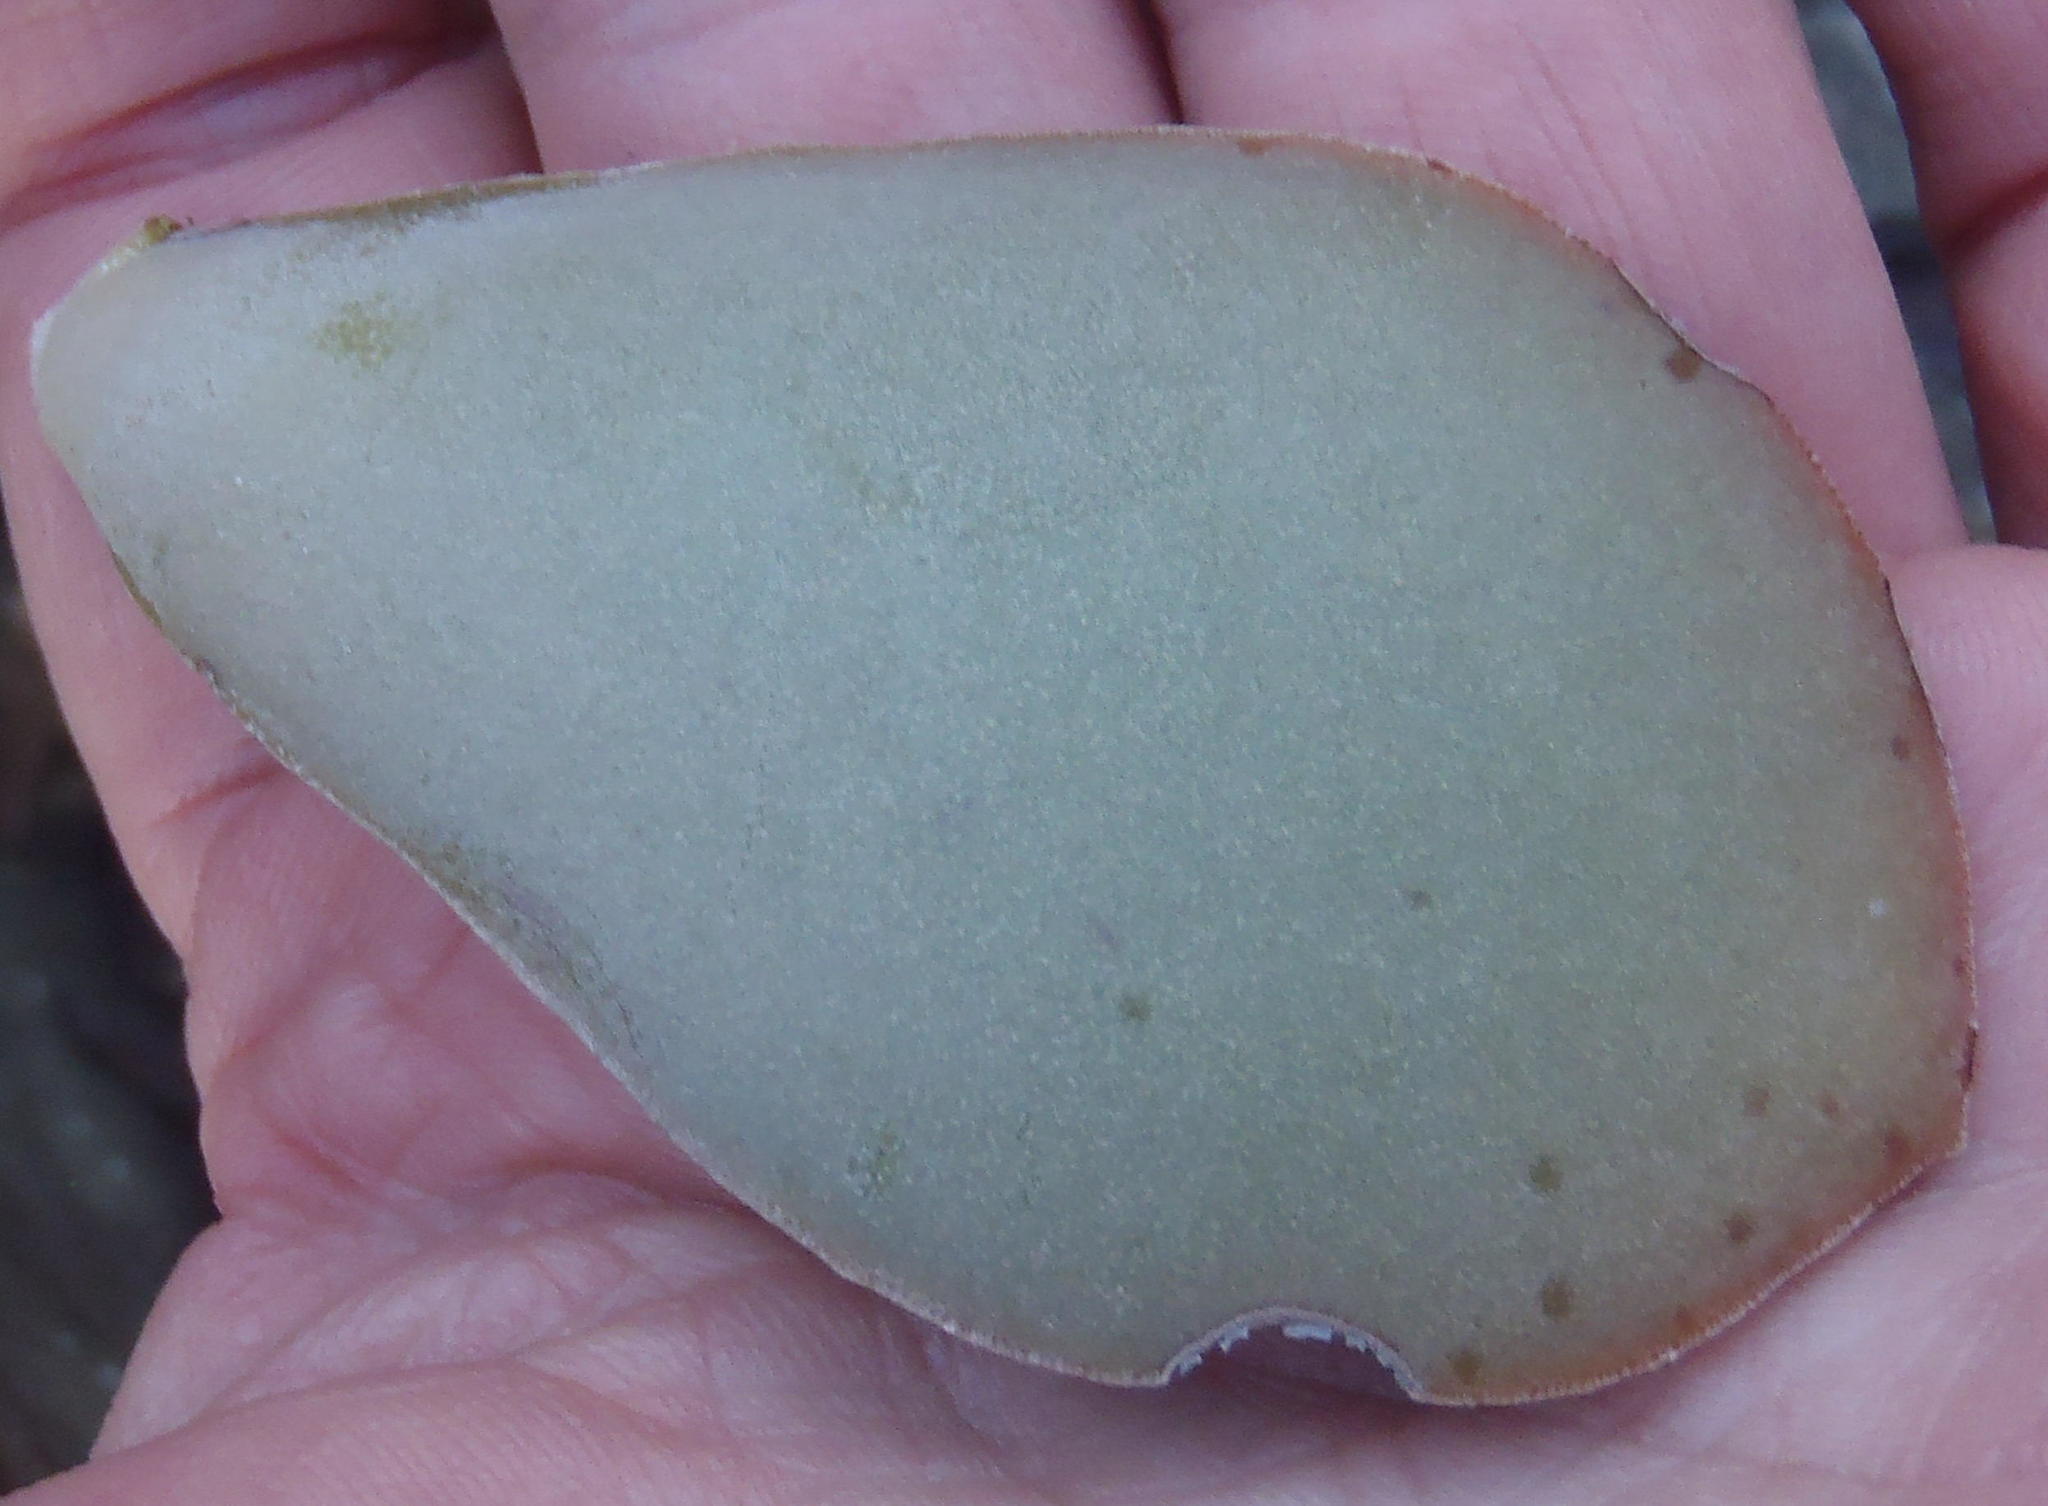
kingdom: Plantae
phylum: Tracheophyta
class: Magnoliopsida
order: Saxifragales
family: Crassulaceae
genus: Adromischus
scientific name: Adromischus maculatus
